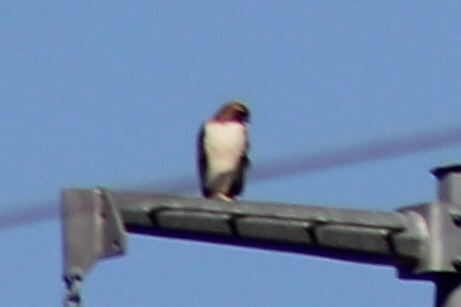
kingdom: Animalia
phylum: Chordata
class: Aves
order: Accipitriformes
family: Accipitridae
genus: Buteo
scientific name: Buteo jamaicensis
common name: Red-tailed hawk
